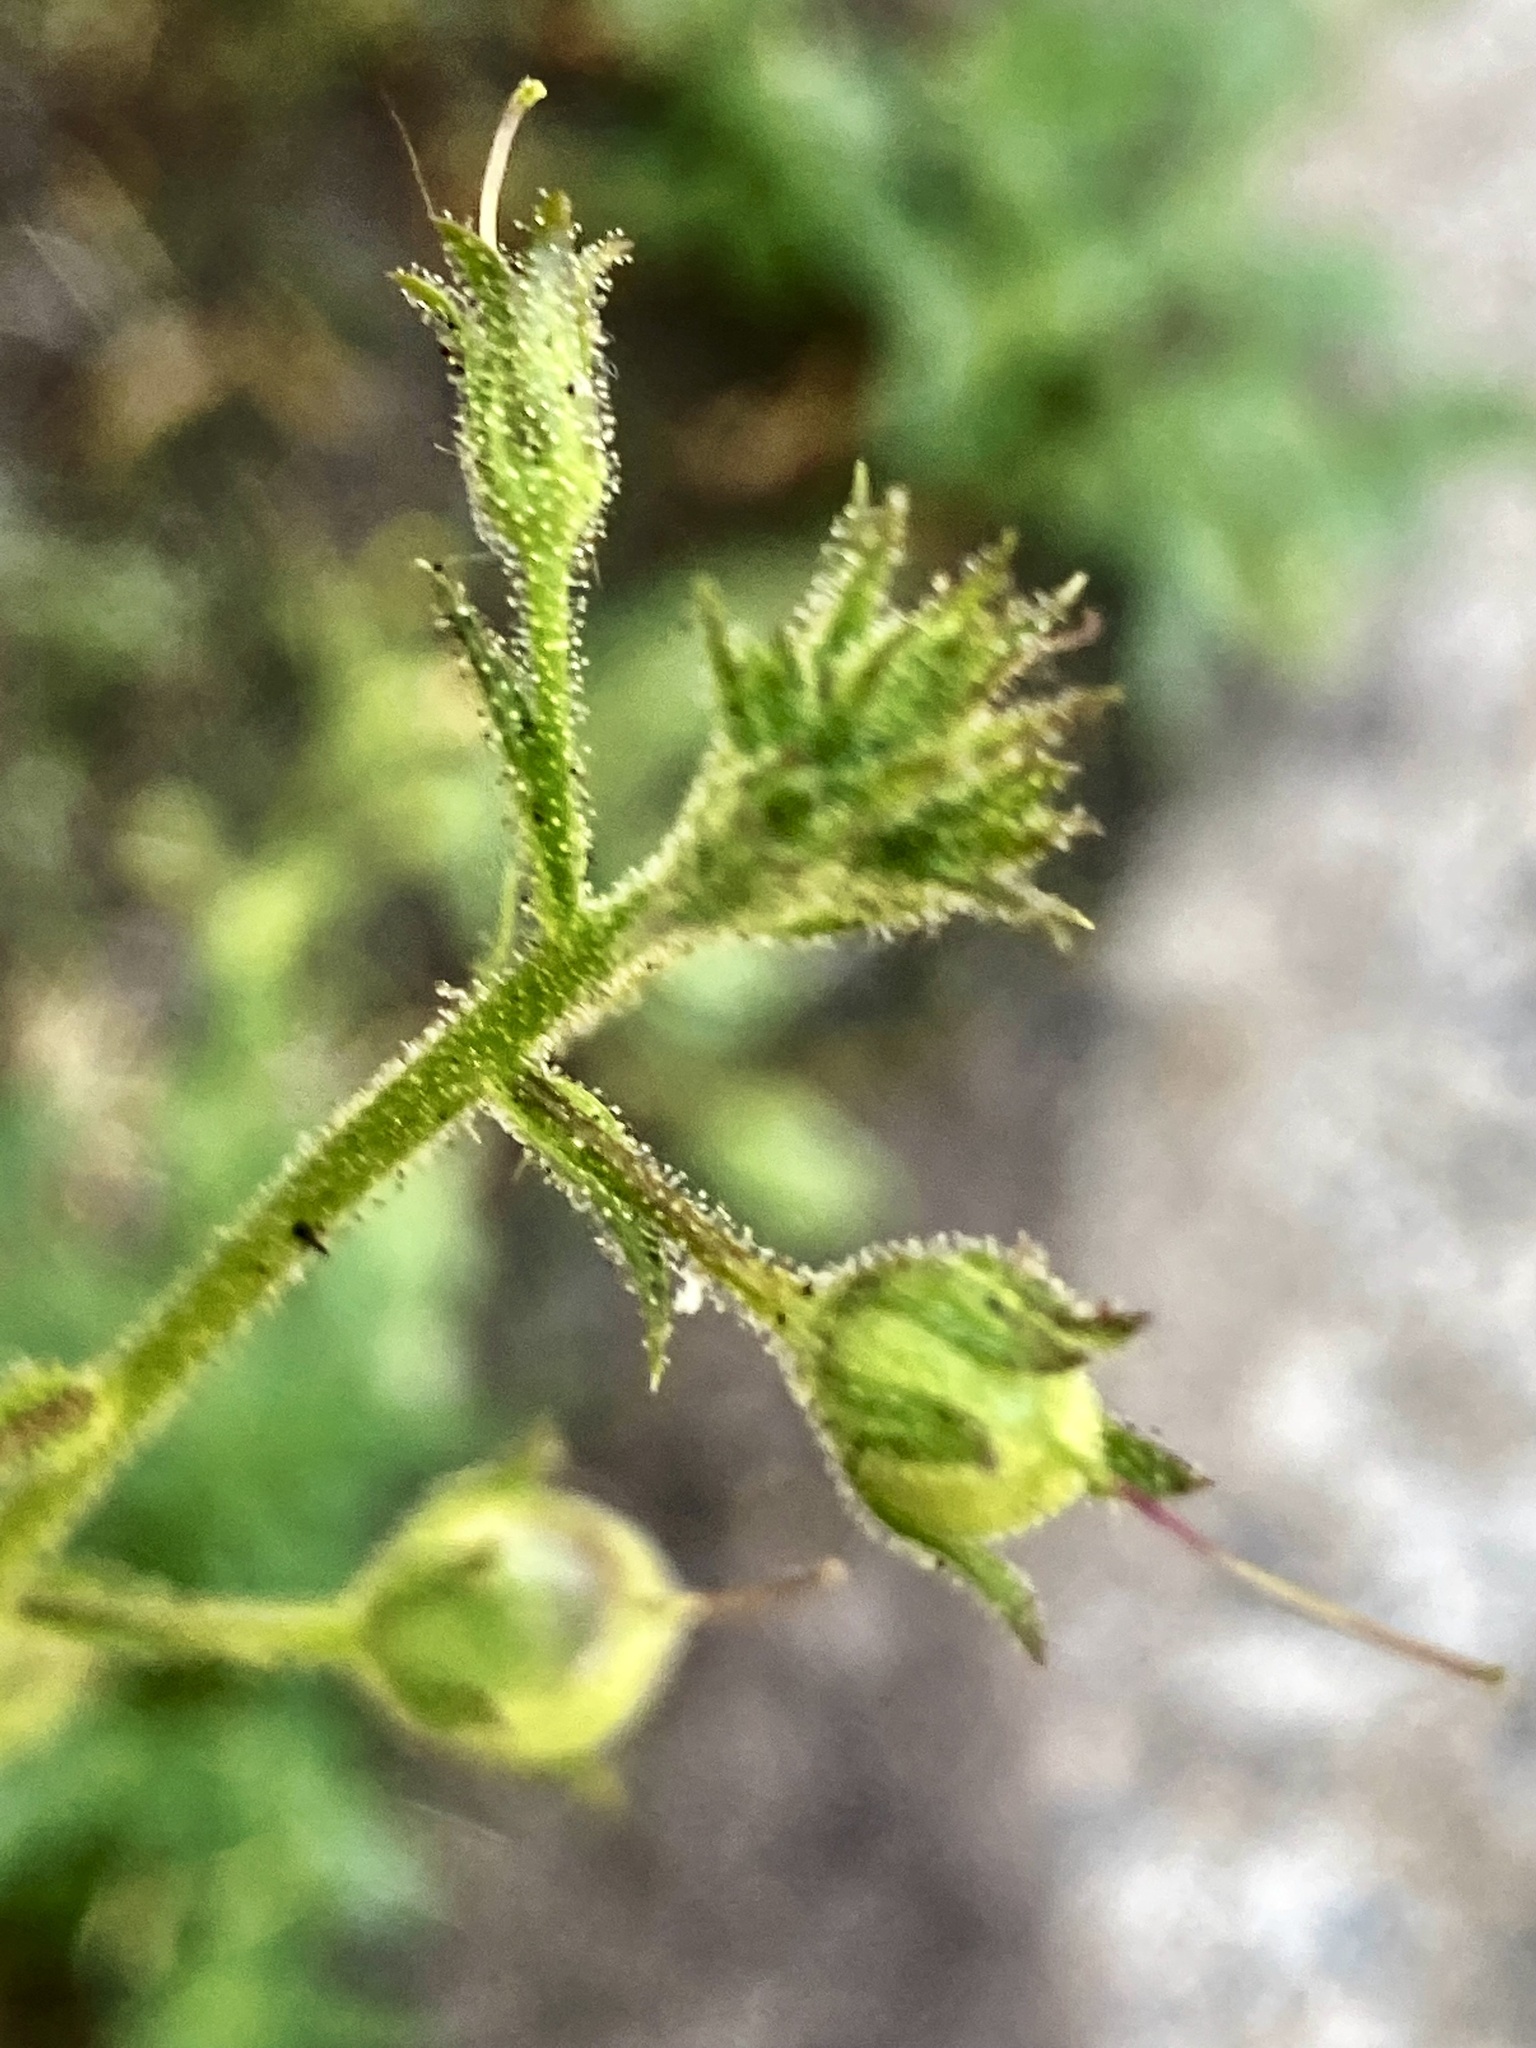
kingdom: Plantae
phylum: Tracheophyta
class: Magnoliopsida
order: Lamiales
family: Scrophulariaceae
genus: Verbascum
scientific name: Verbascum blattaria
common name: Moth mullein
